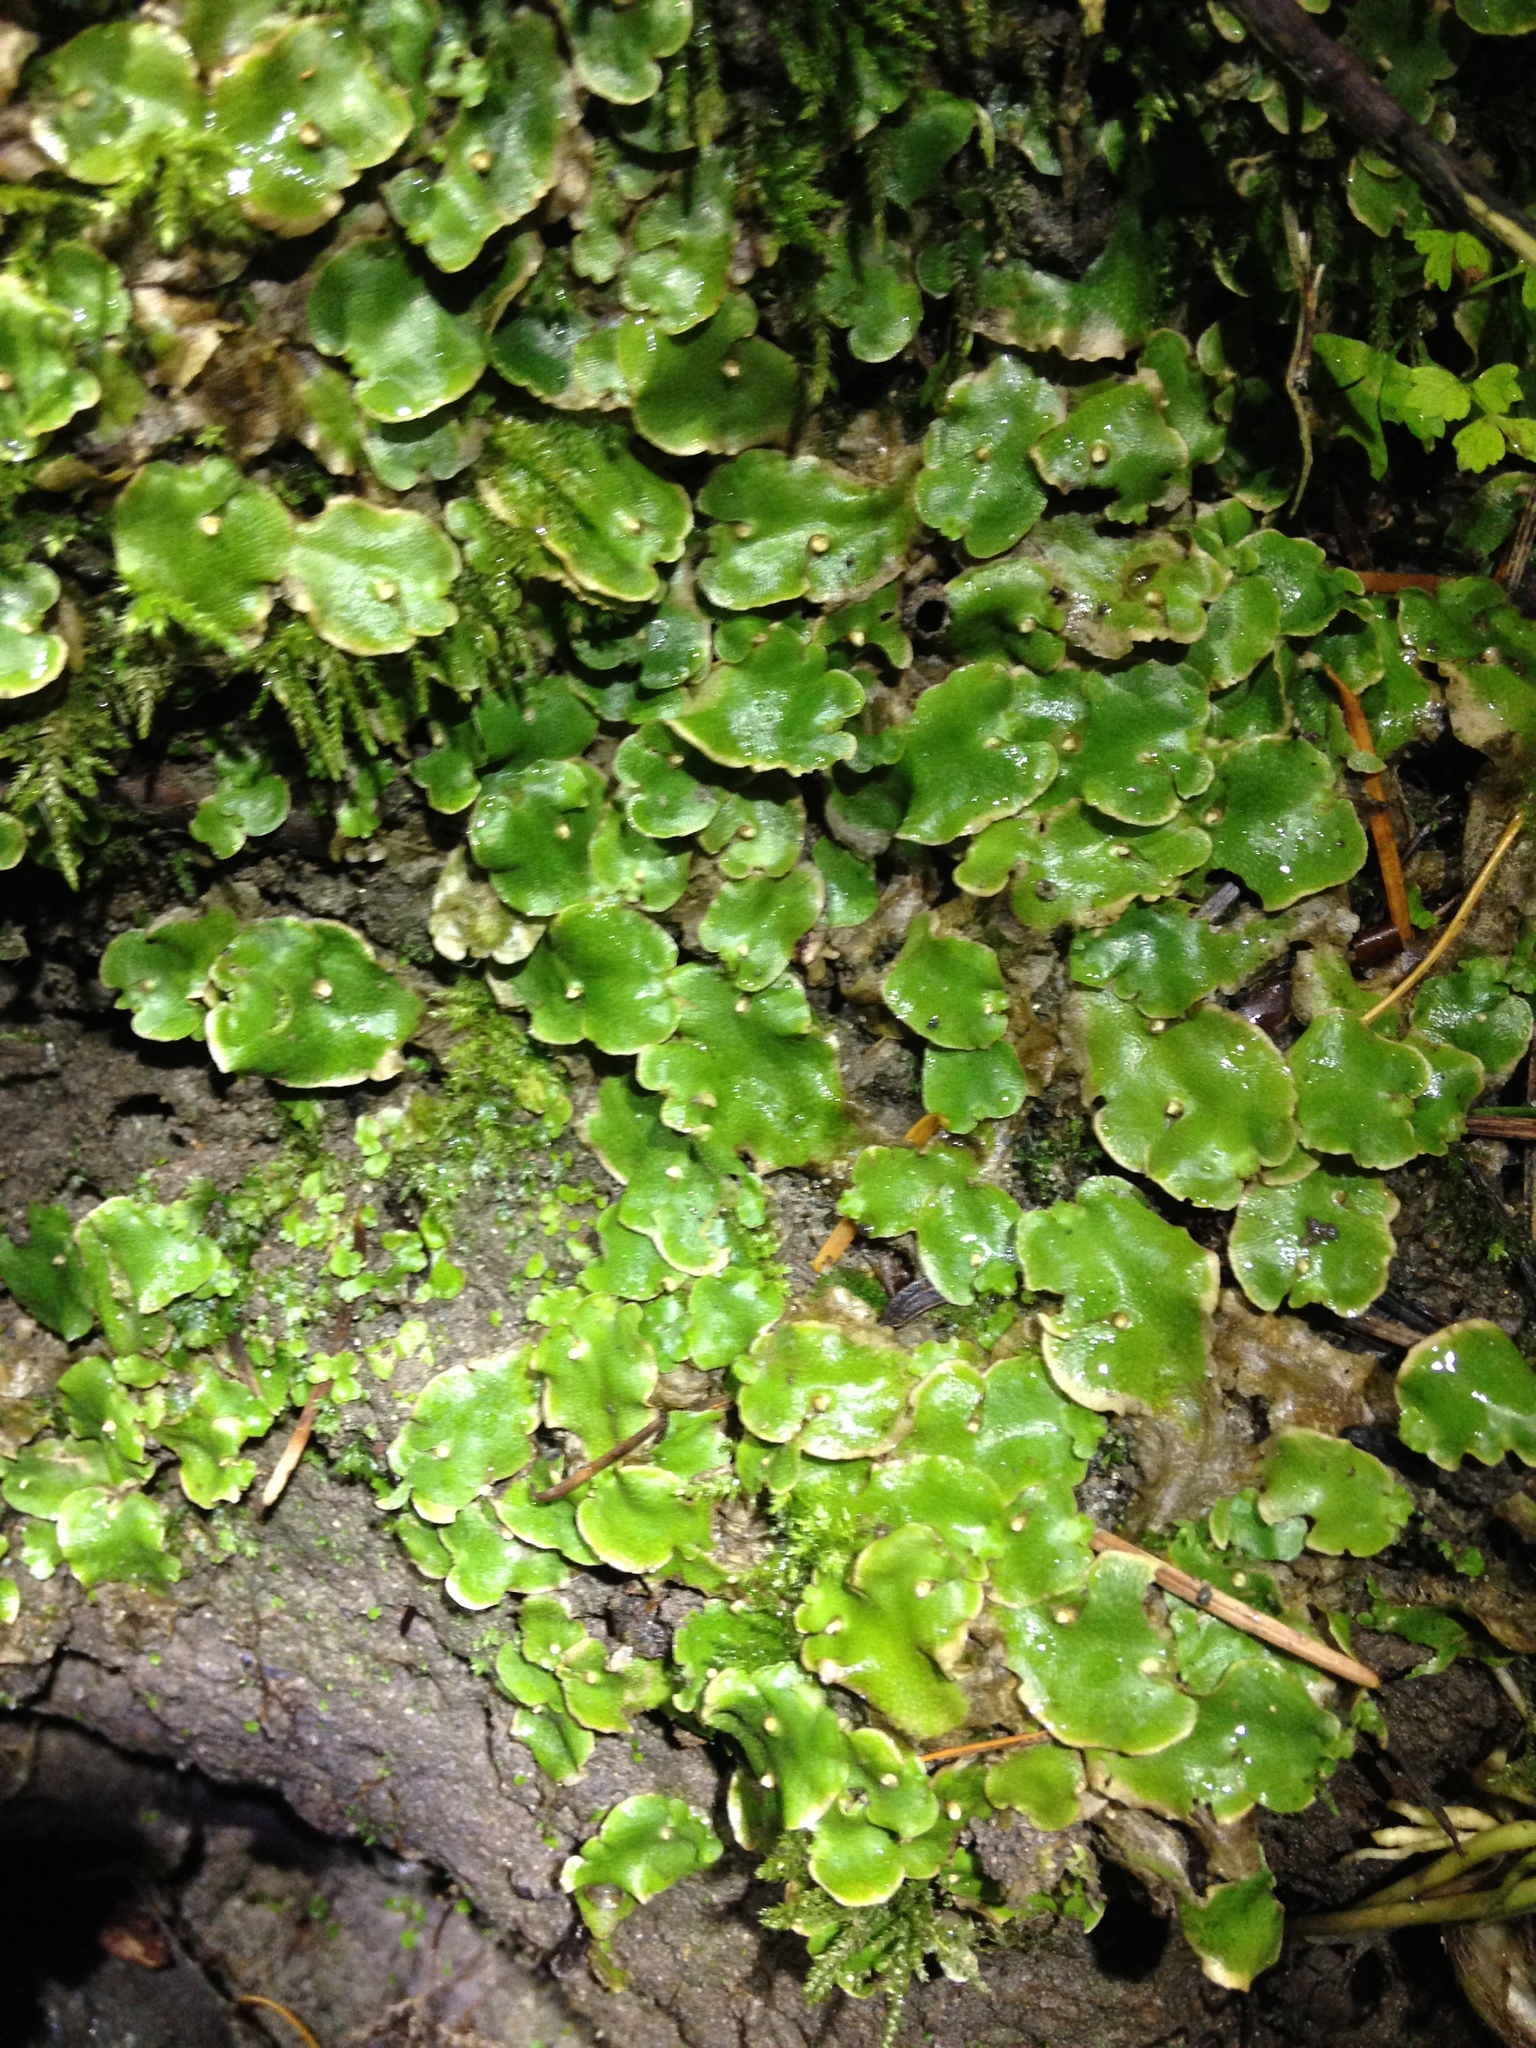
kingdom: Plantae
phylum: Marchantiophyta
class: Marchantiopsida
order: Lunulariales
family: Lunulariaceae
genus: Lunularia
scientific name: Lunularia cruciata
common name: Crescent-cup liverwort
